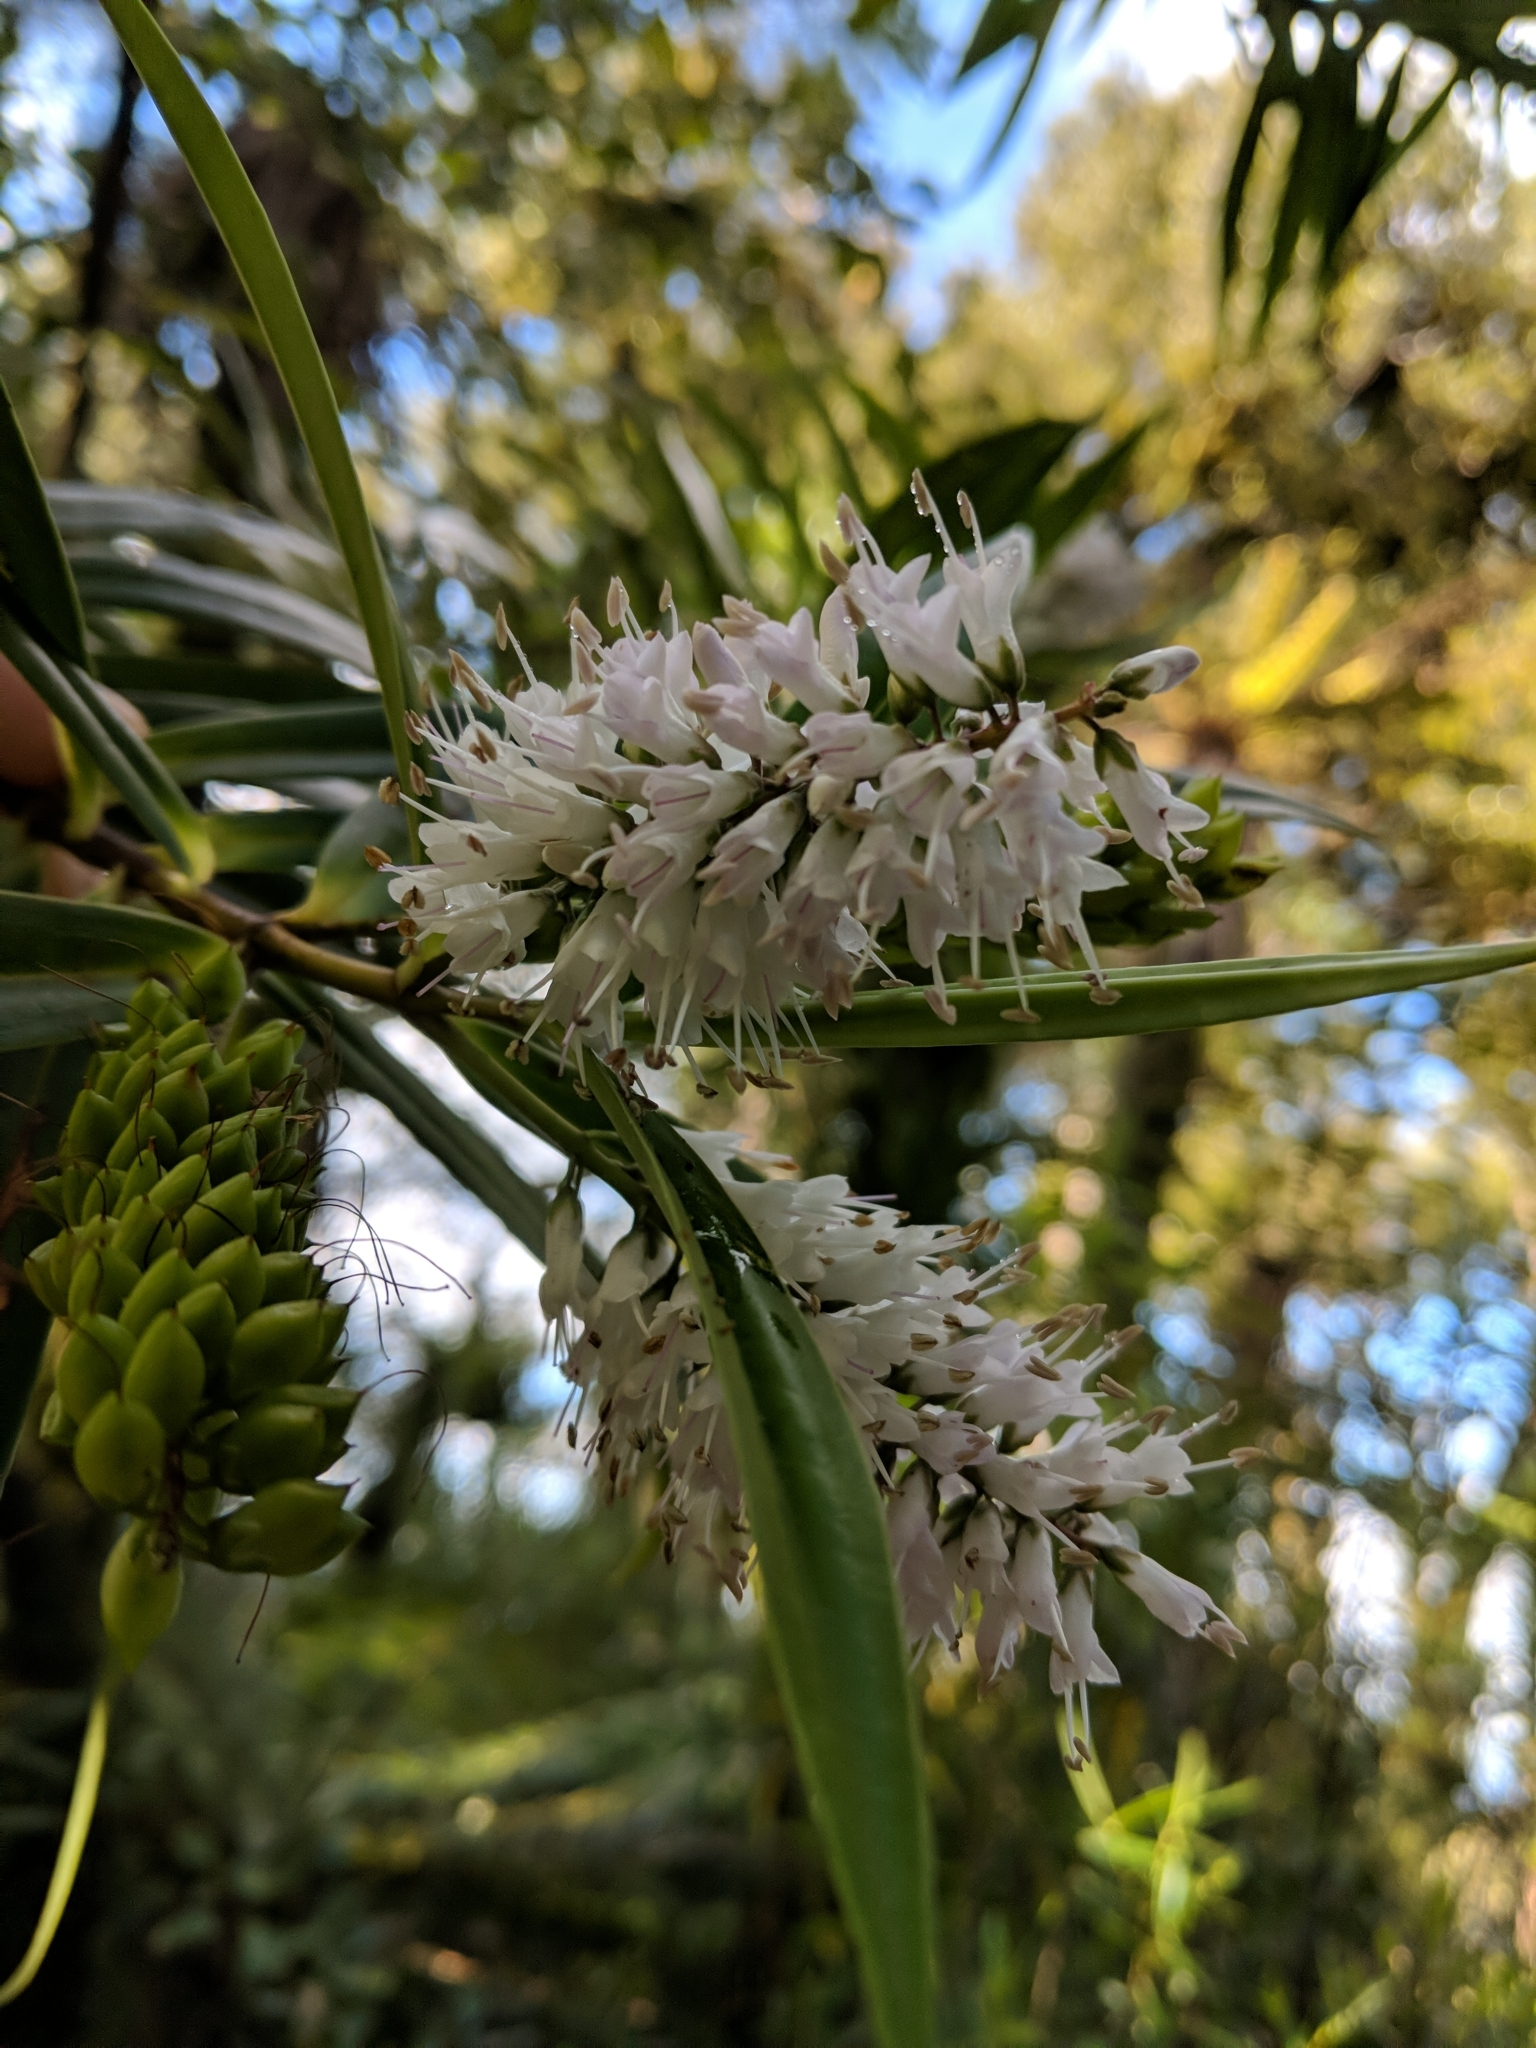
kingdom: Plantae
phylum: Tracheophyta
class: Magnoliopsida
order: Lamiales
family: Plantaginaceae
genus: Veronica
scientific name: Veronica macrocarpa
